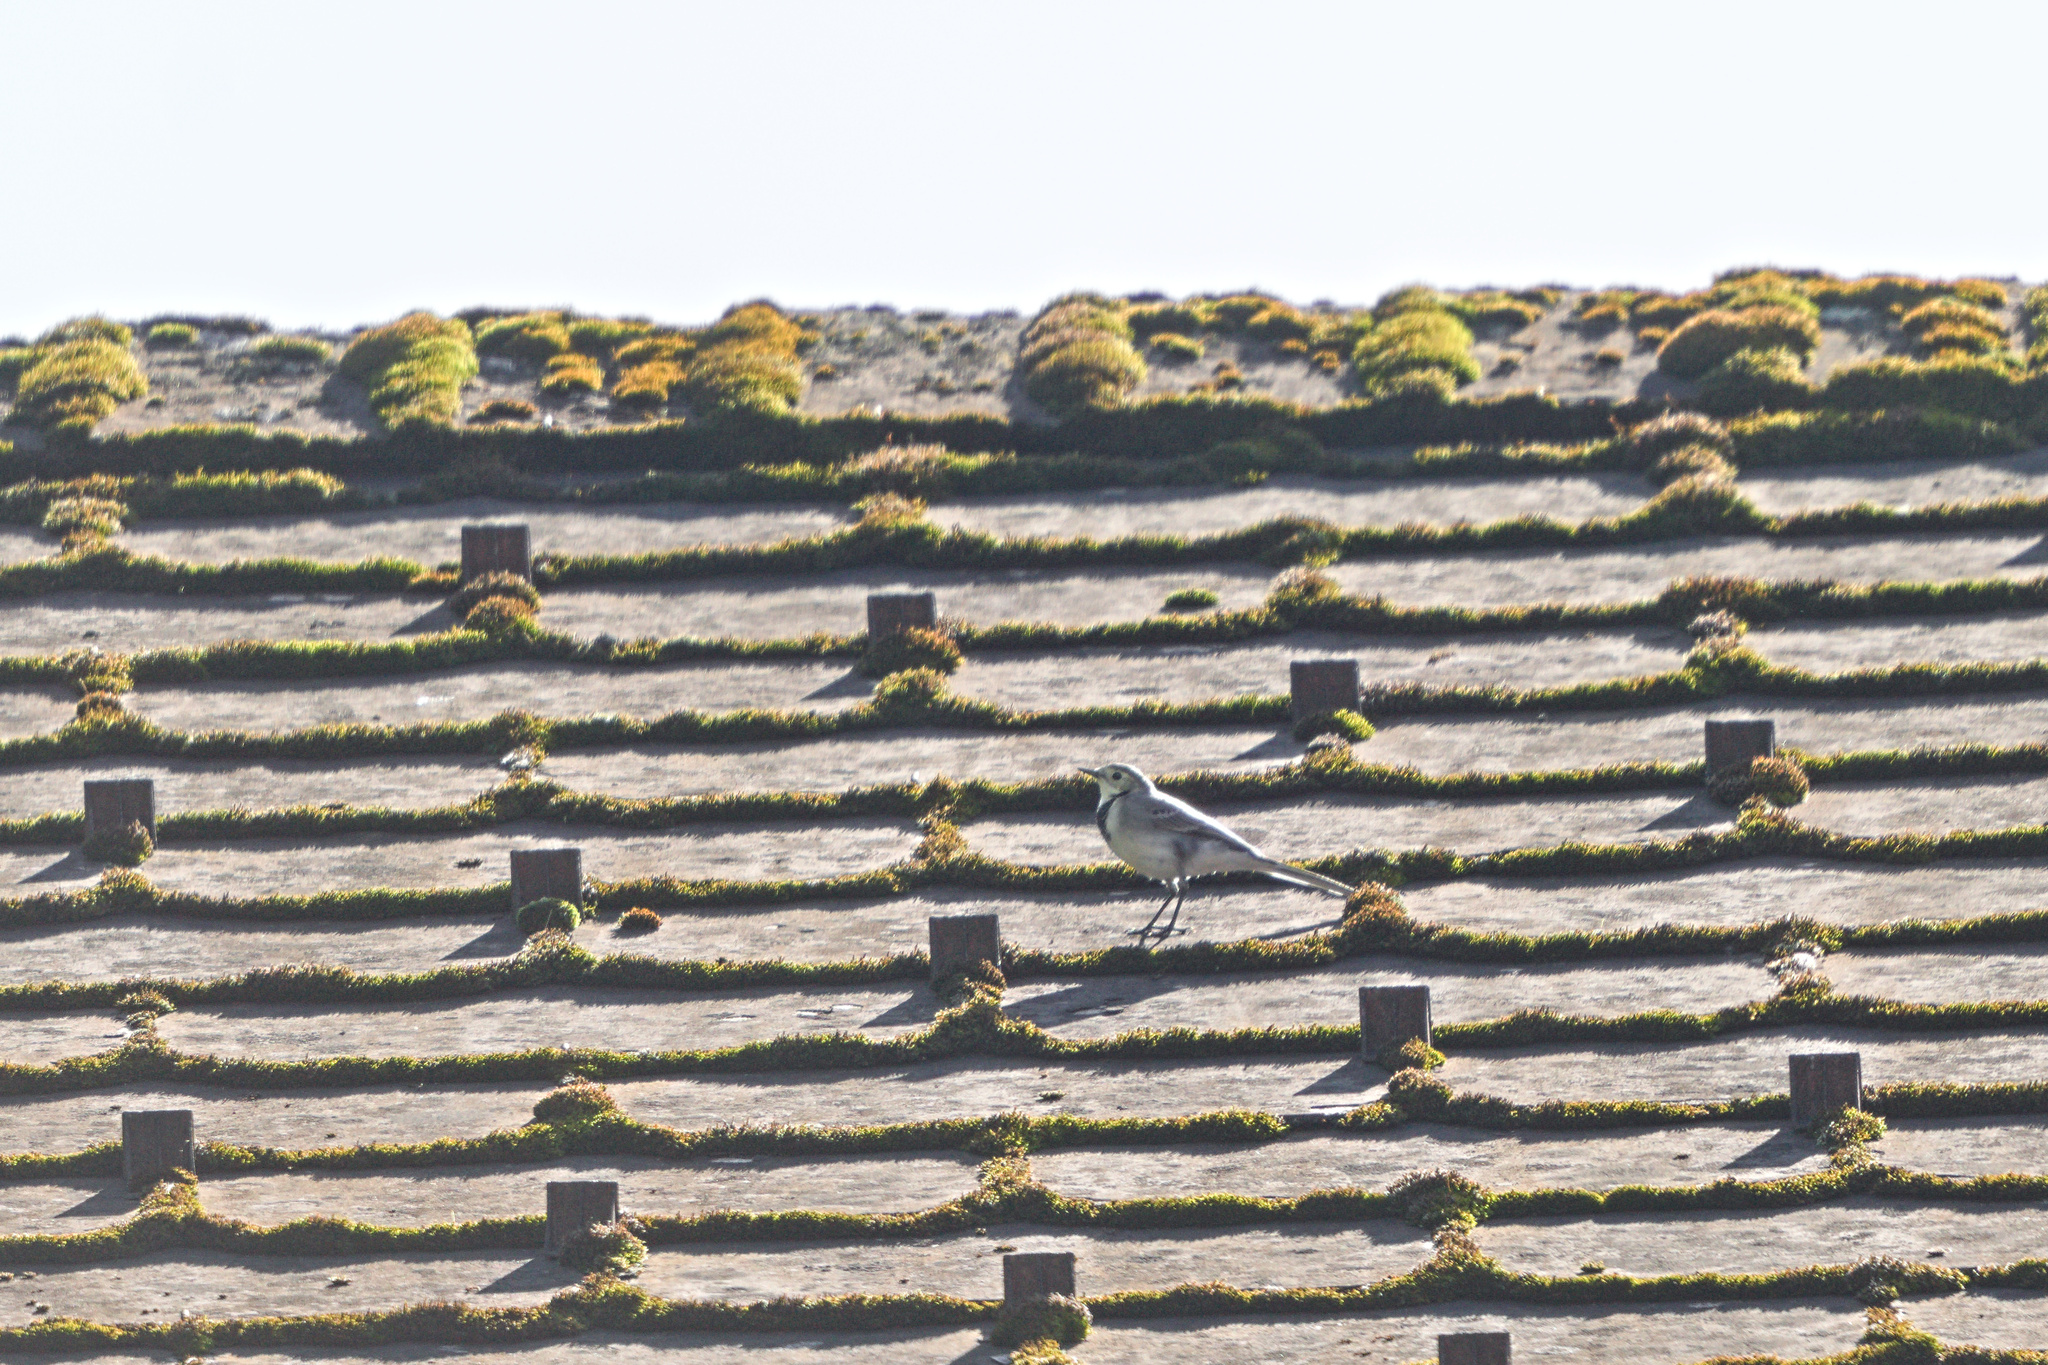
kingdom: Animalia
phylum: Chordata
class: Aves
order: Passeriformes
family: Motacillidae
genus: Motacilla
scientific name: Motacilla alba
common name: White wagtail
